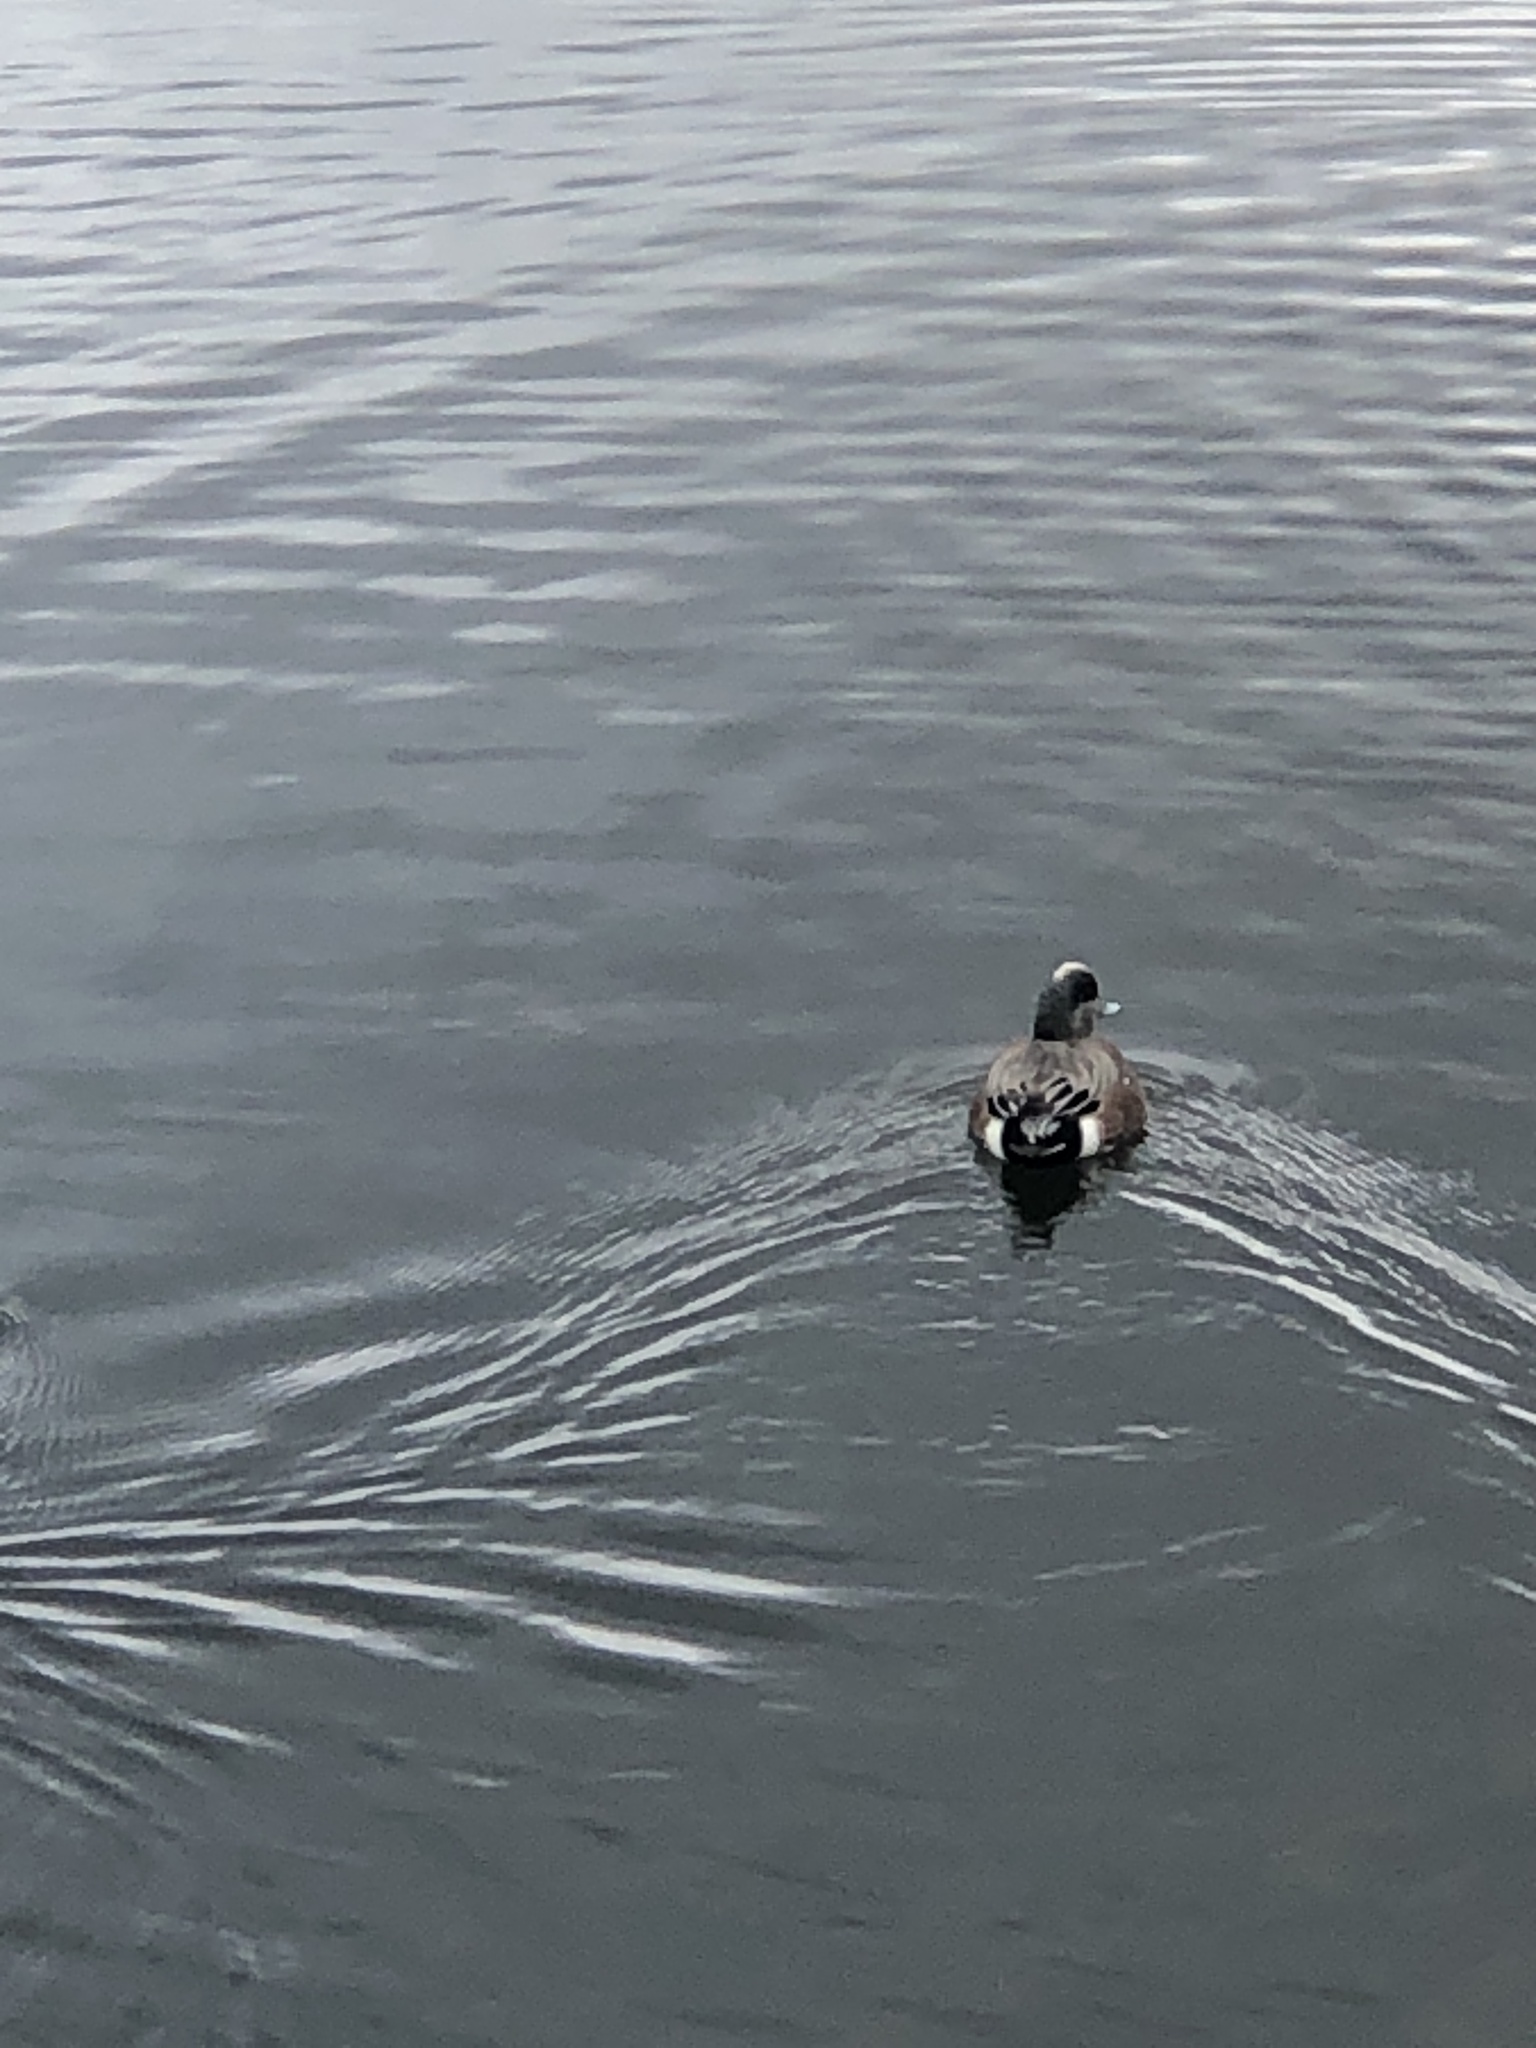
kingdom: Animalia
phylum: Chordata
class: Aves
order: Anseriformes
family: Anatidae
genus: Mareca
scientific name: Mareca americana
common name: American wigeon
